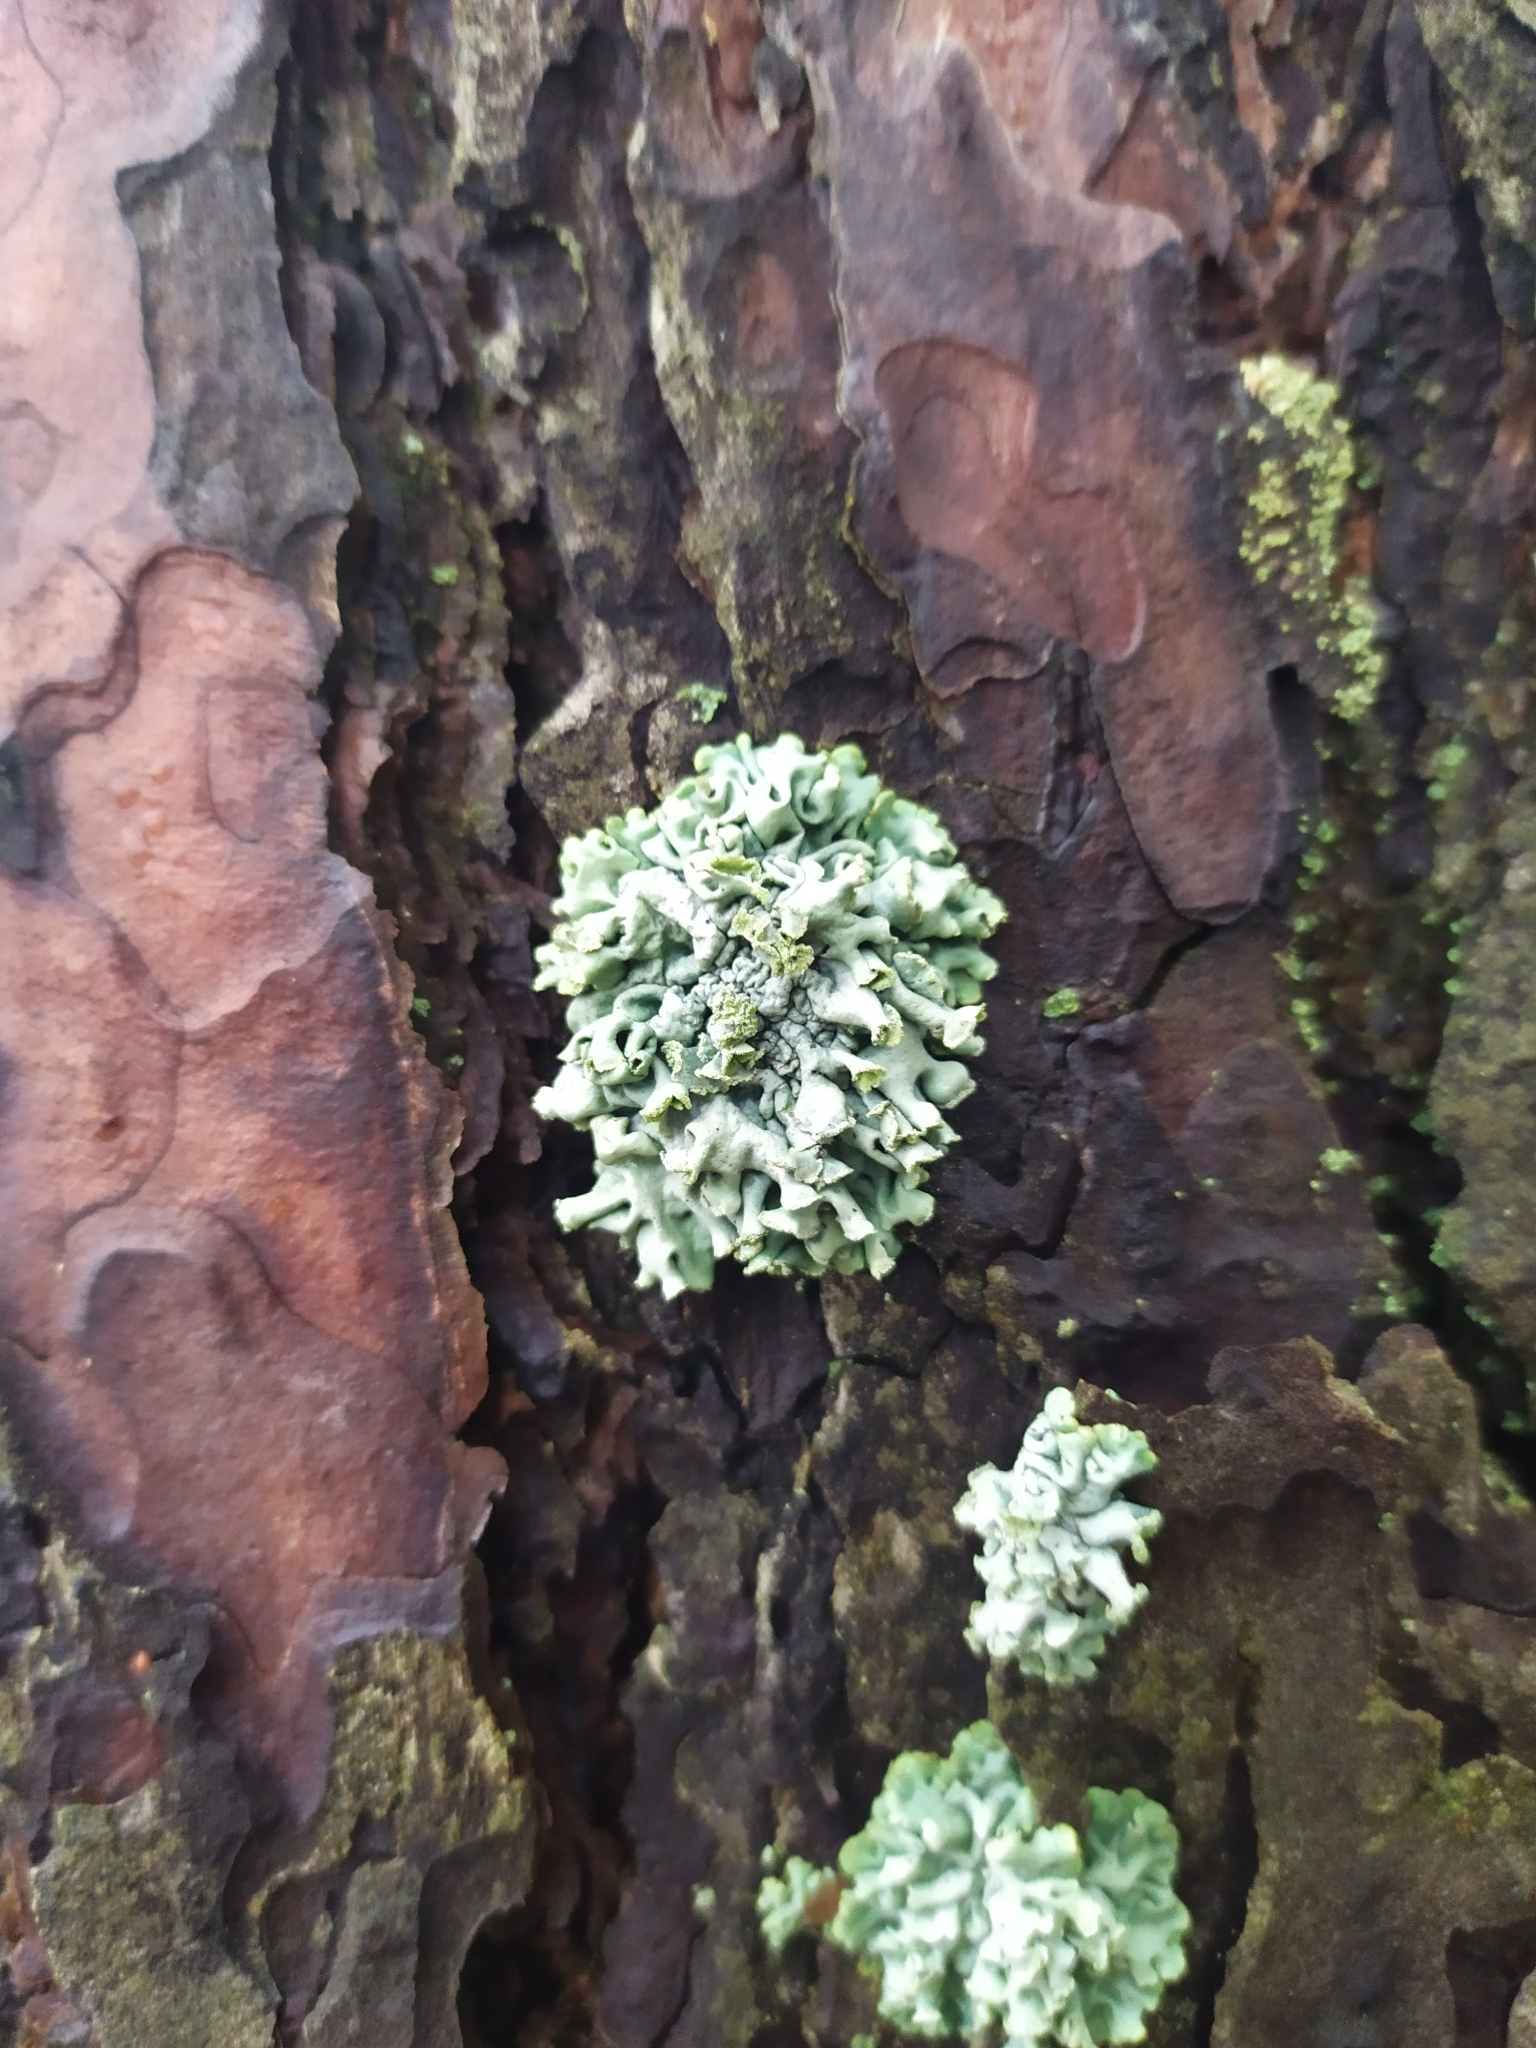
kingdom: Fungi
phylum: Ascomycota
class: Lecanoromycetes
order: Lecanorales
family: Parmeliaceae
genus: Hypogymnia
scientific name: Hypogymnia physodes
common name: Dark crottle
